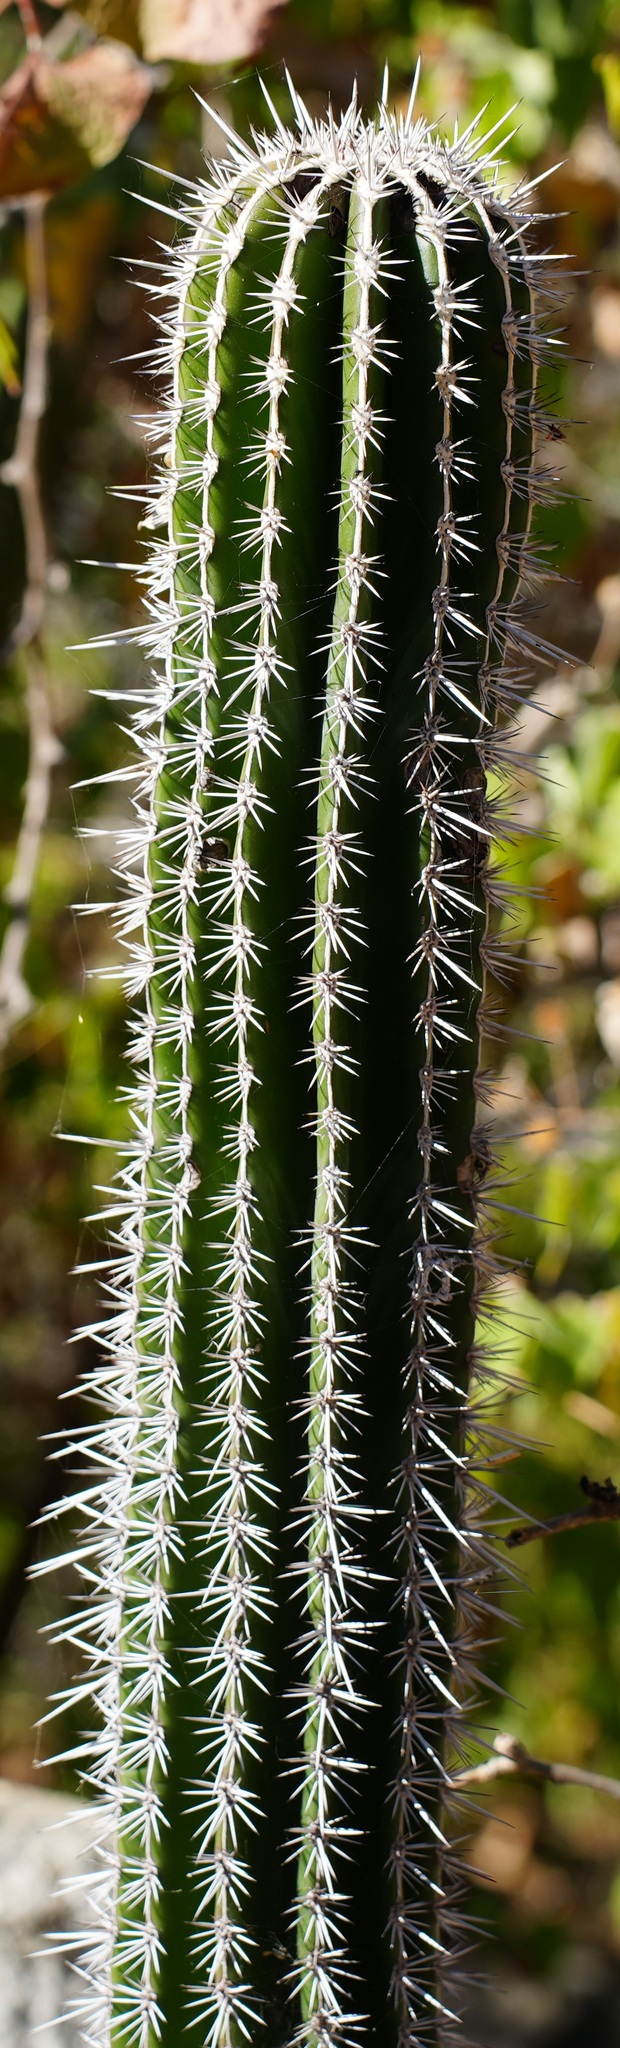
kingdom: Plantae
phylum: Tracheophyta
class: Magnoliopsida
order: Caryophyllales
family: Cactaceae
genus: Pachycereus
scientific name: Pachycereus pecten-aboriginum
